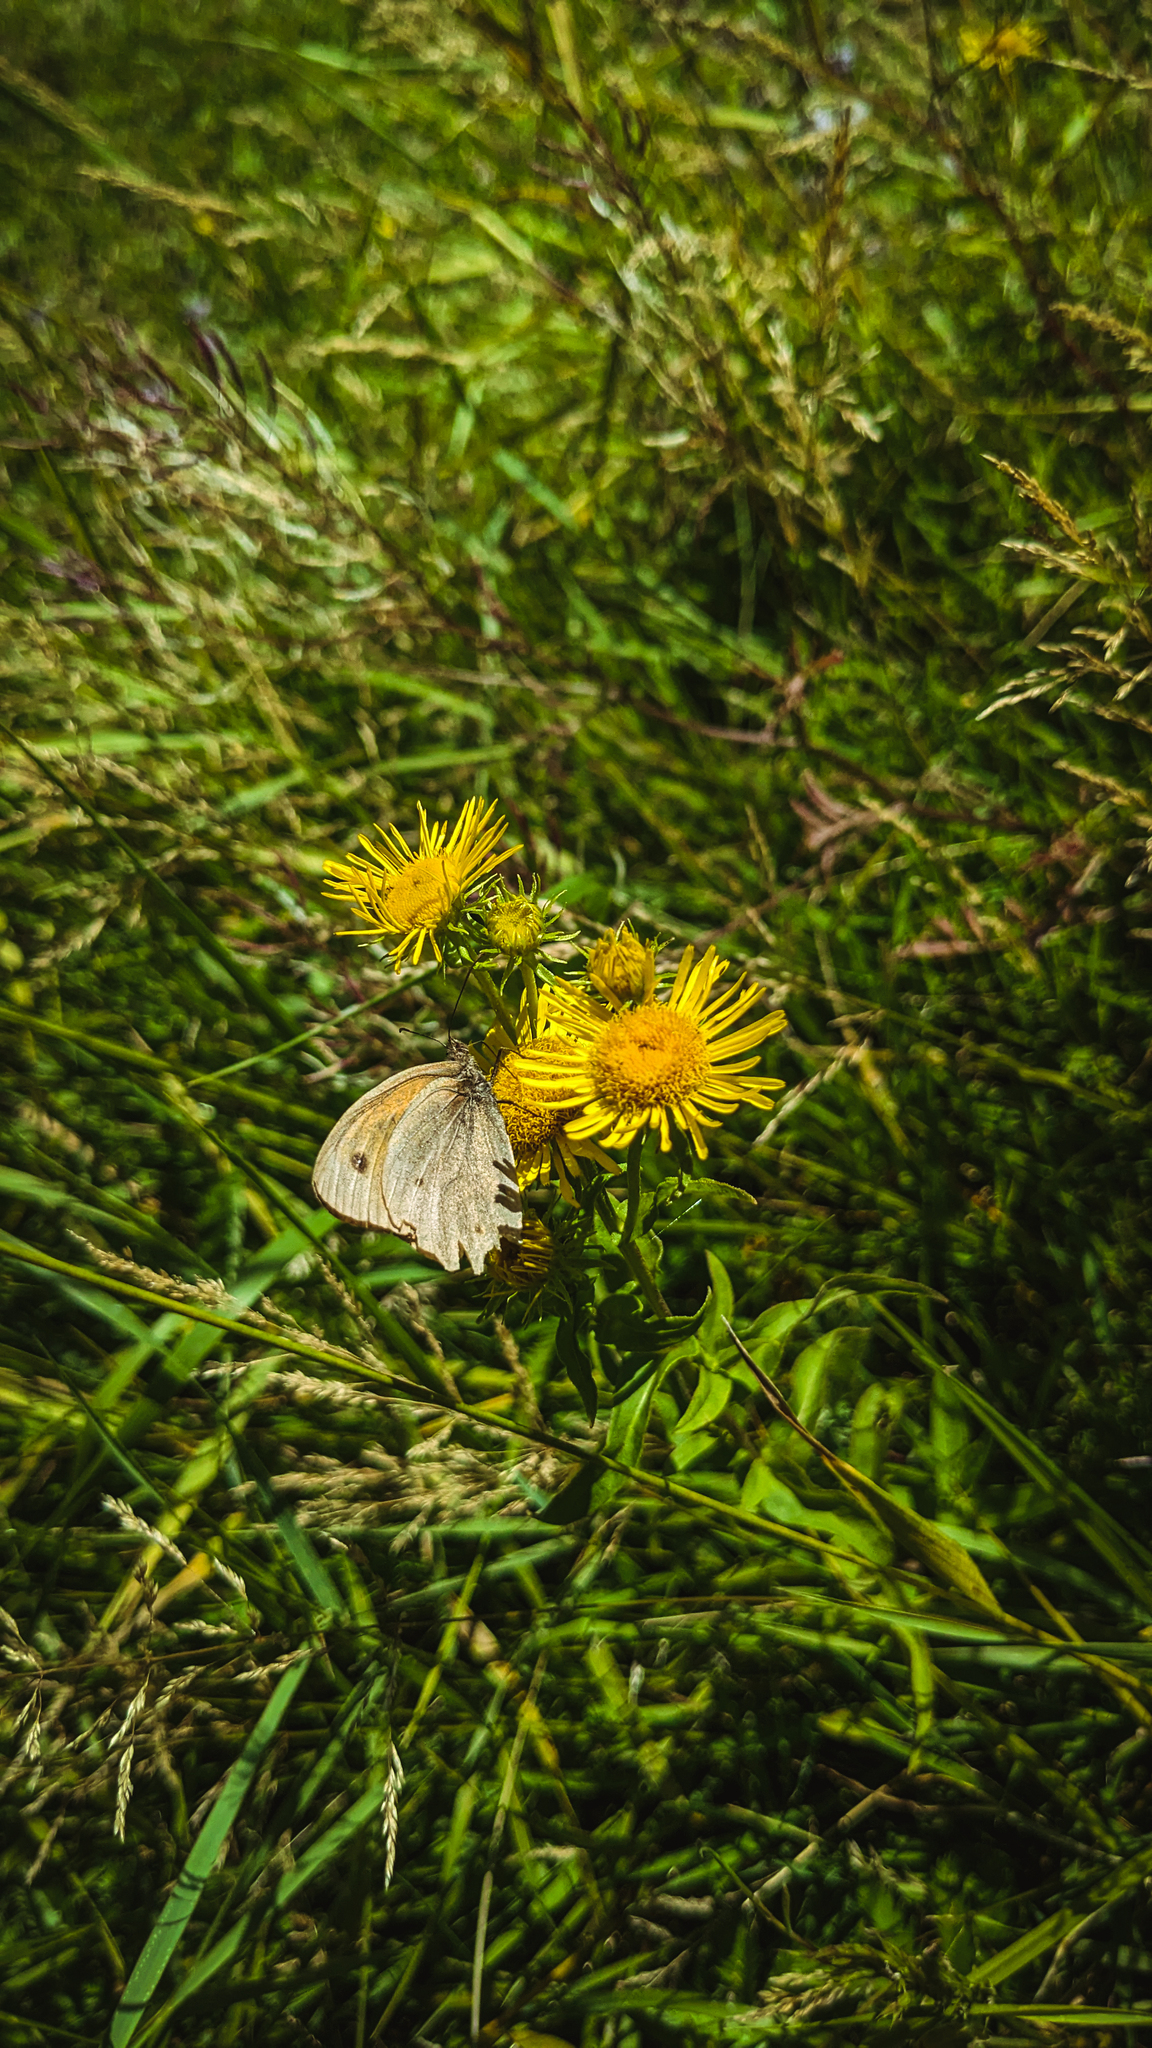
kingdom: Animalia
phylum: Arthropoda
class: Insecta
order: Lepidoptera
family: Nymphalidae
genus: Maniola
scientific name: Maniola jurtina
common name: Meadow brown
